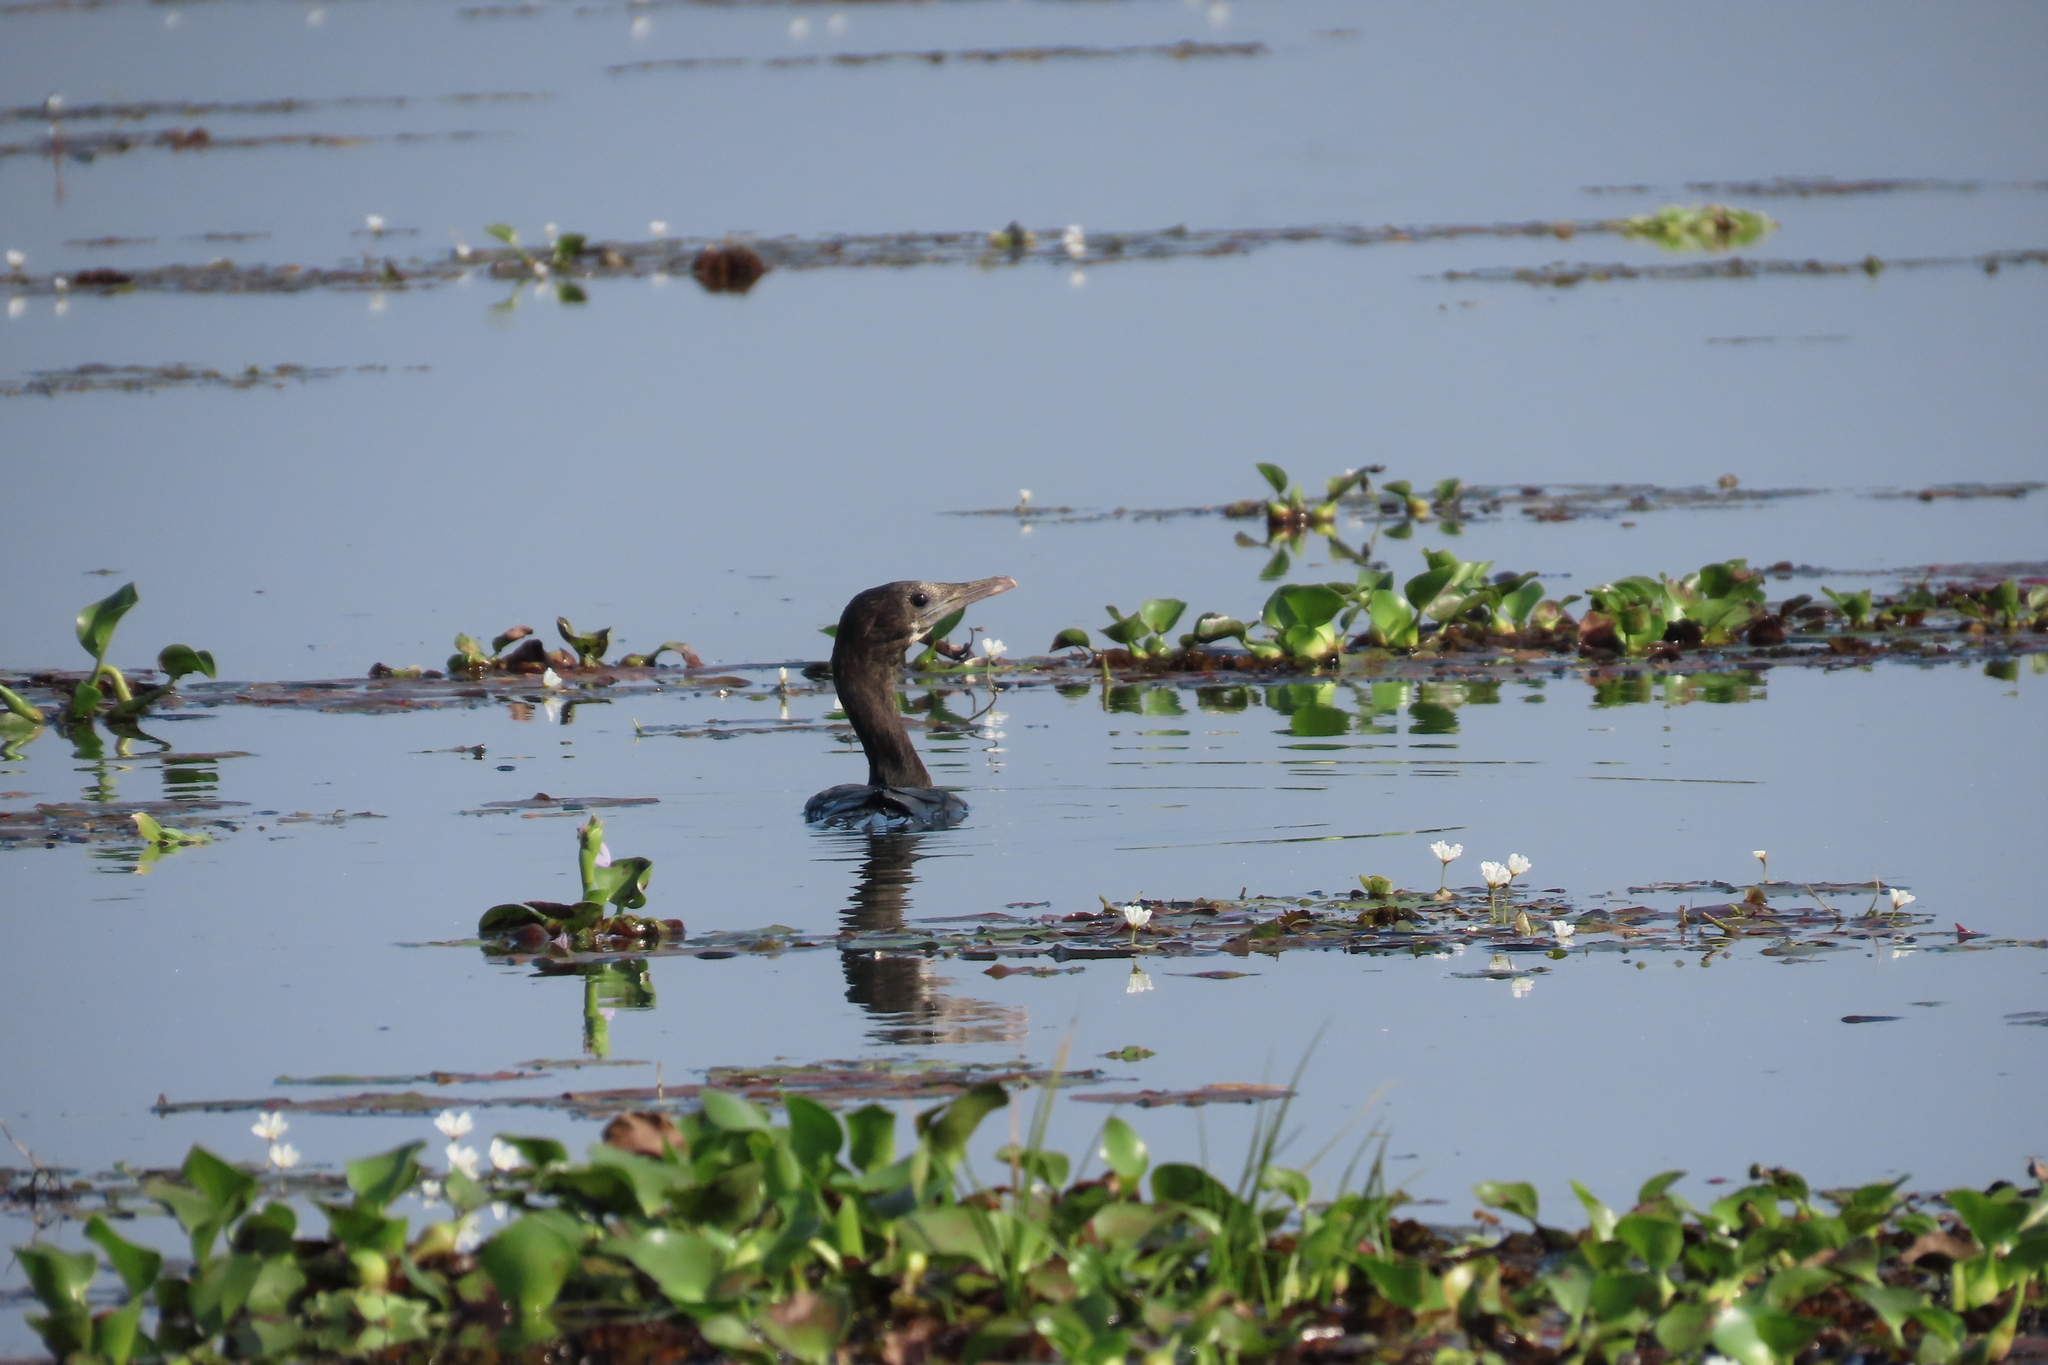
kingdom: Animalia
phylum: Chordata
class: Aves
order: Suliformes
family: Phalacrocoracidae
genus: Microcarbo
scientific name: Microcarbo niger
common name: Little cormorant
